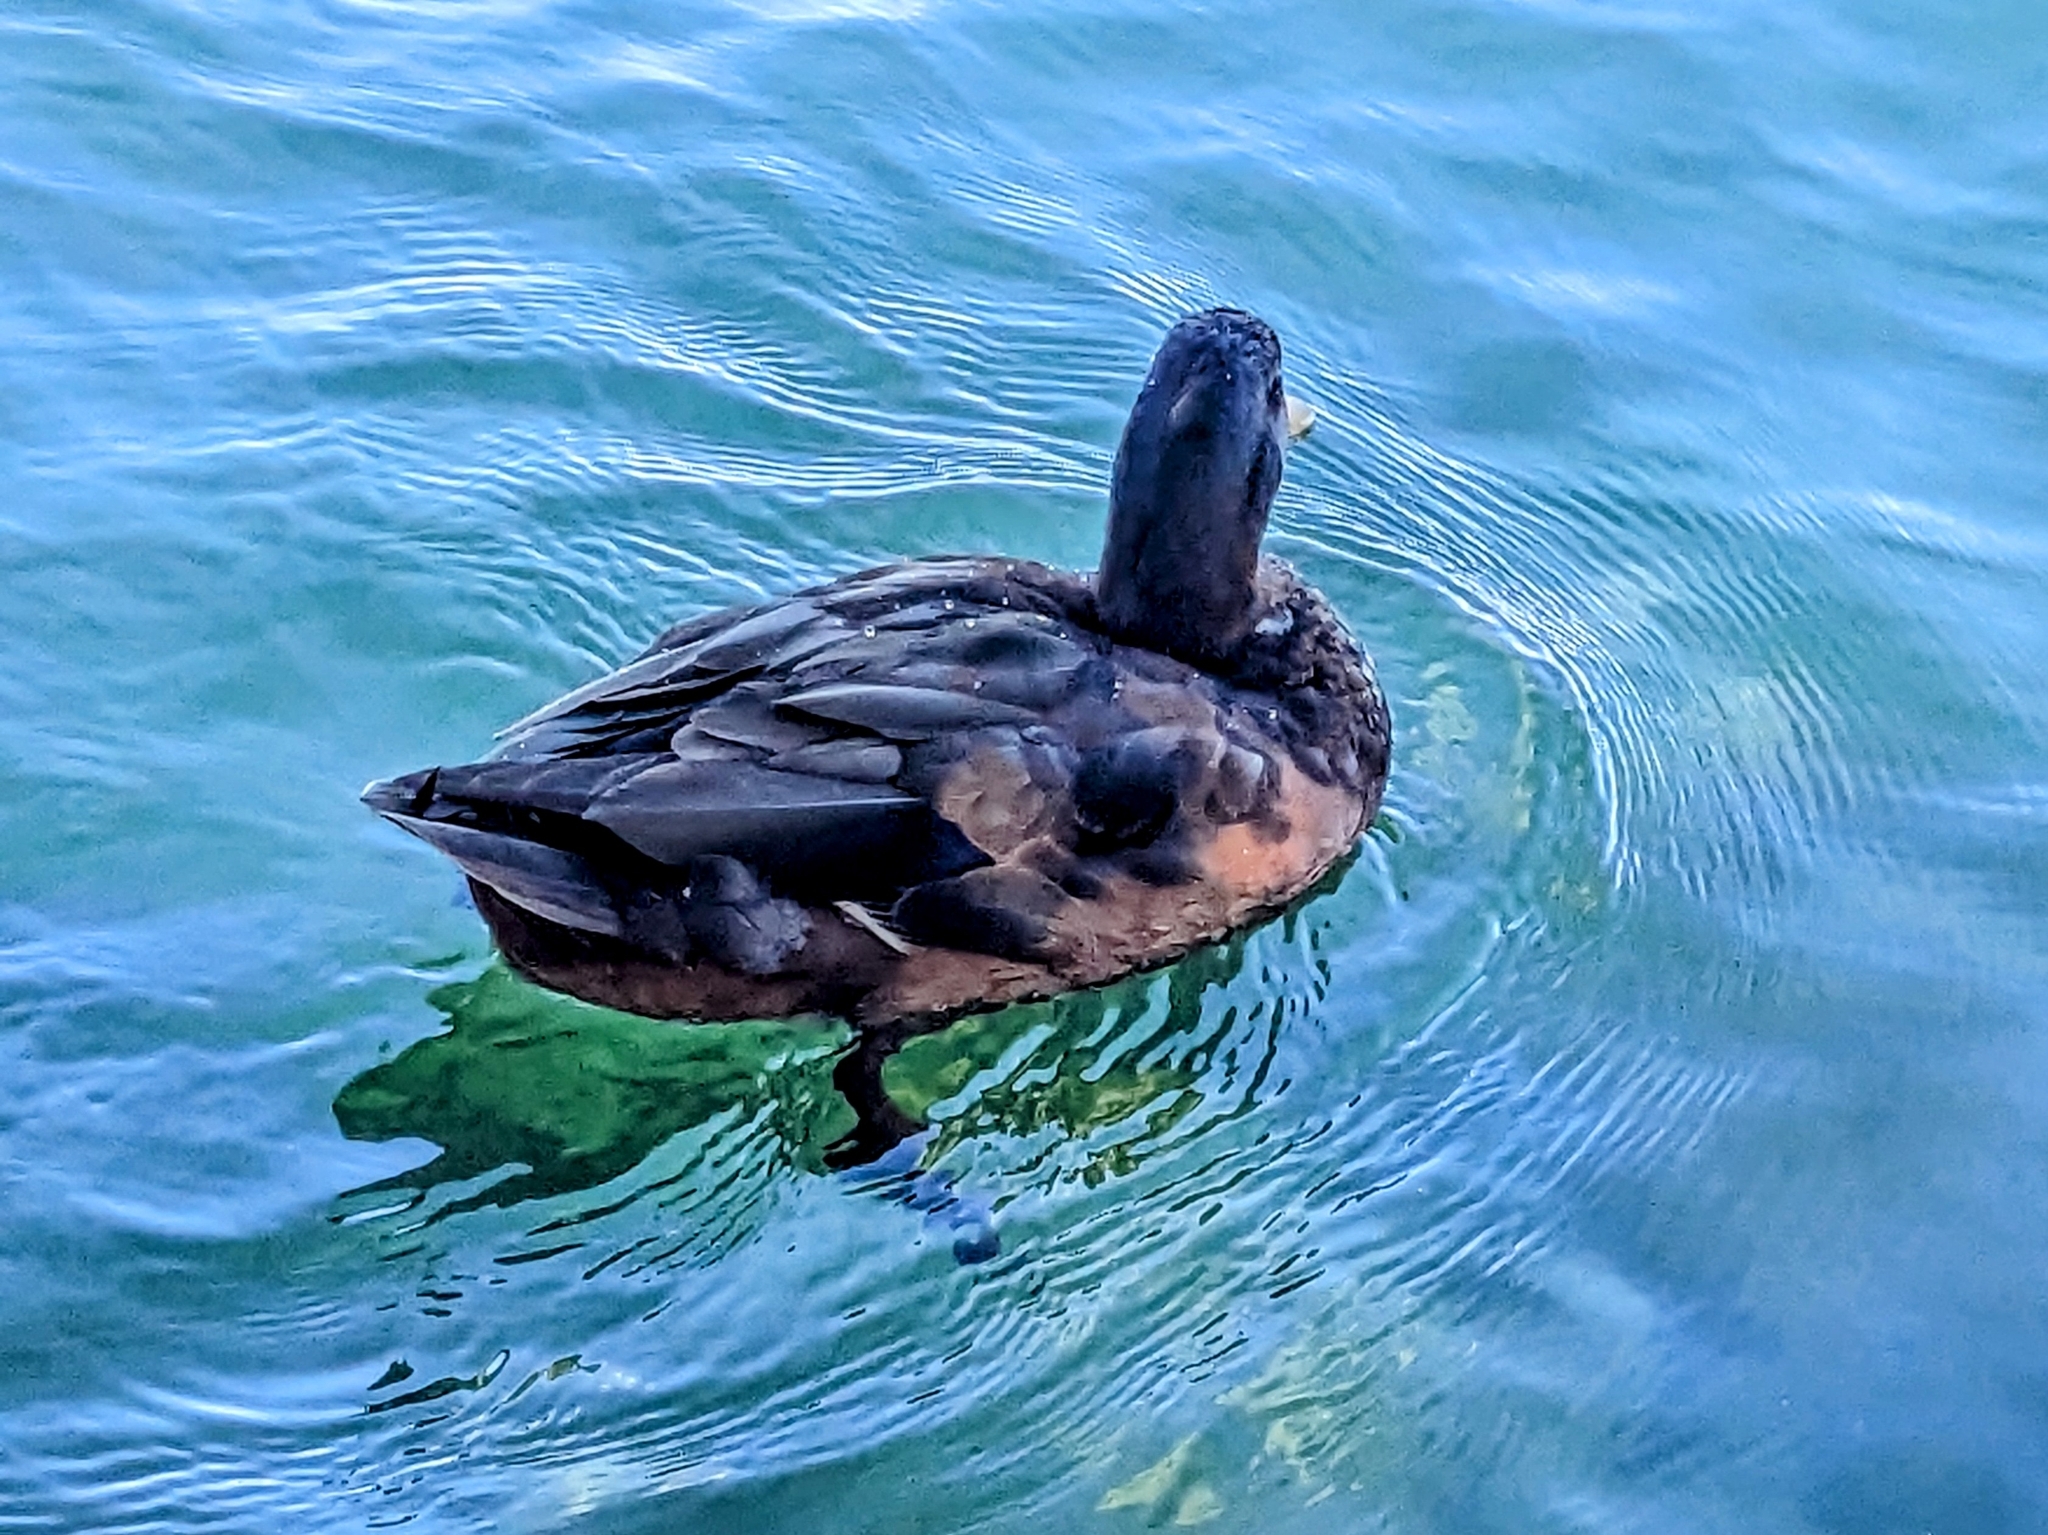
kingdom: Animalia
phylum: Chordata
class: Aves
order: Anseriformes
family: Anatidae
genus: Anas
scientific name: Anas platyrhynchos
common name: Mallard
